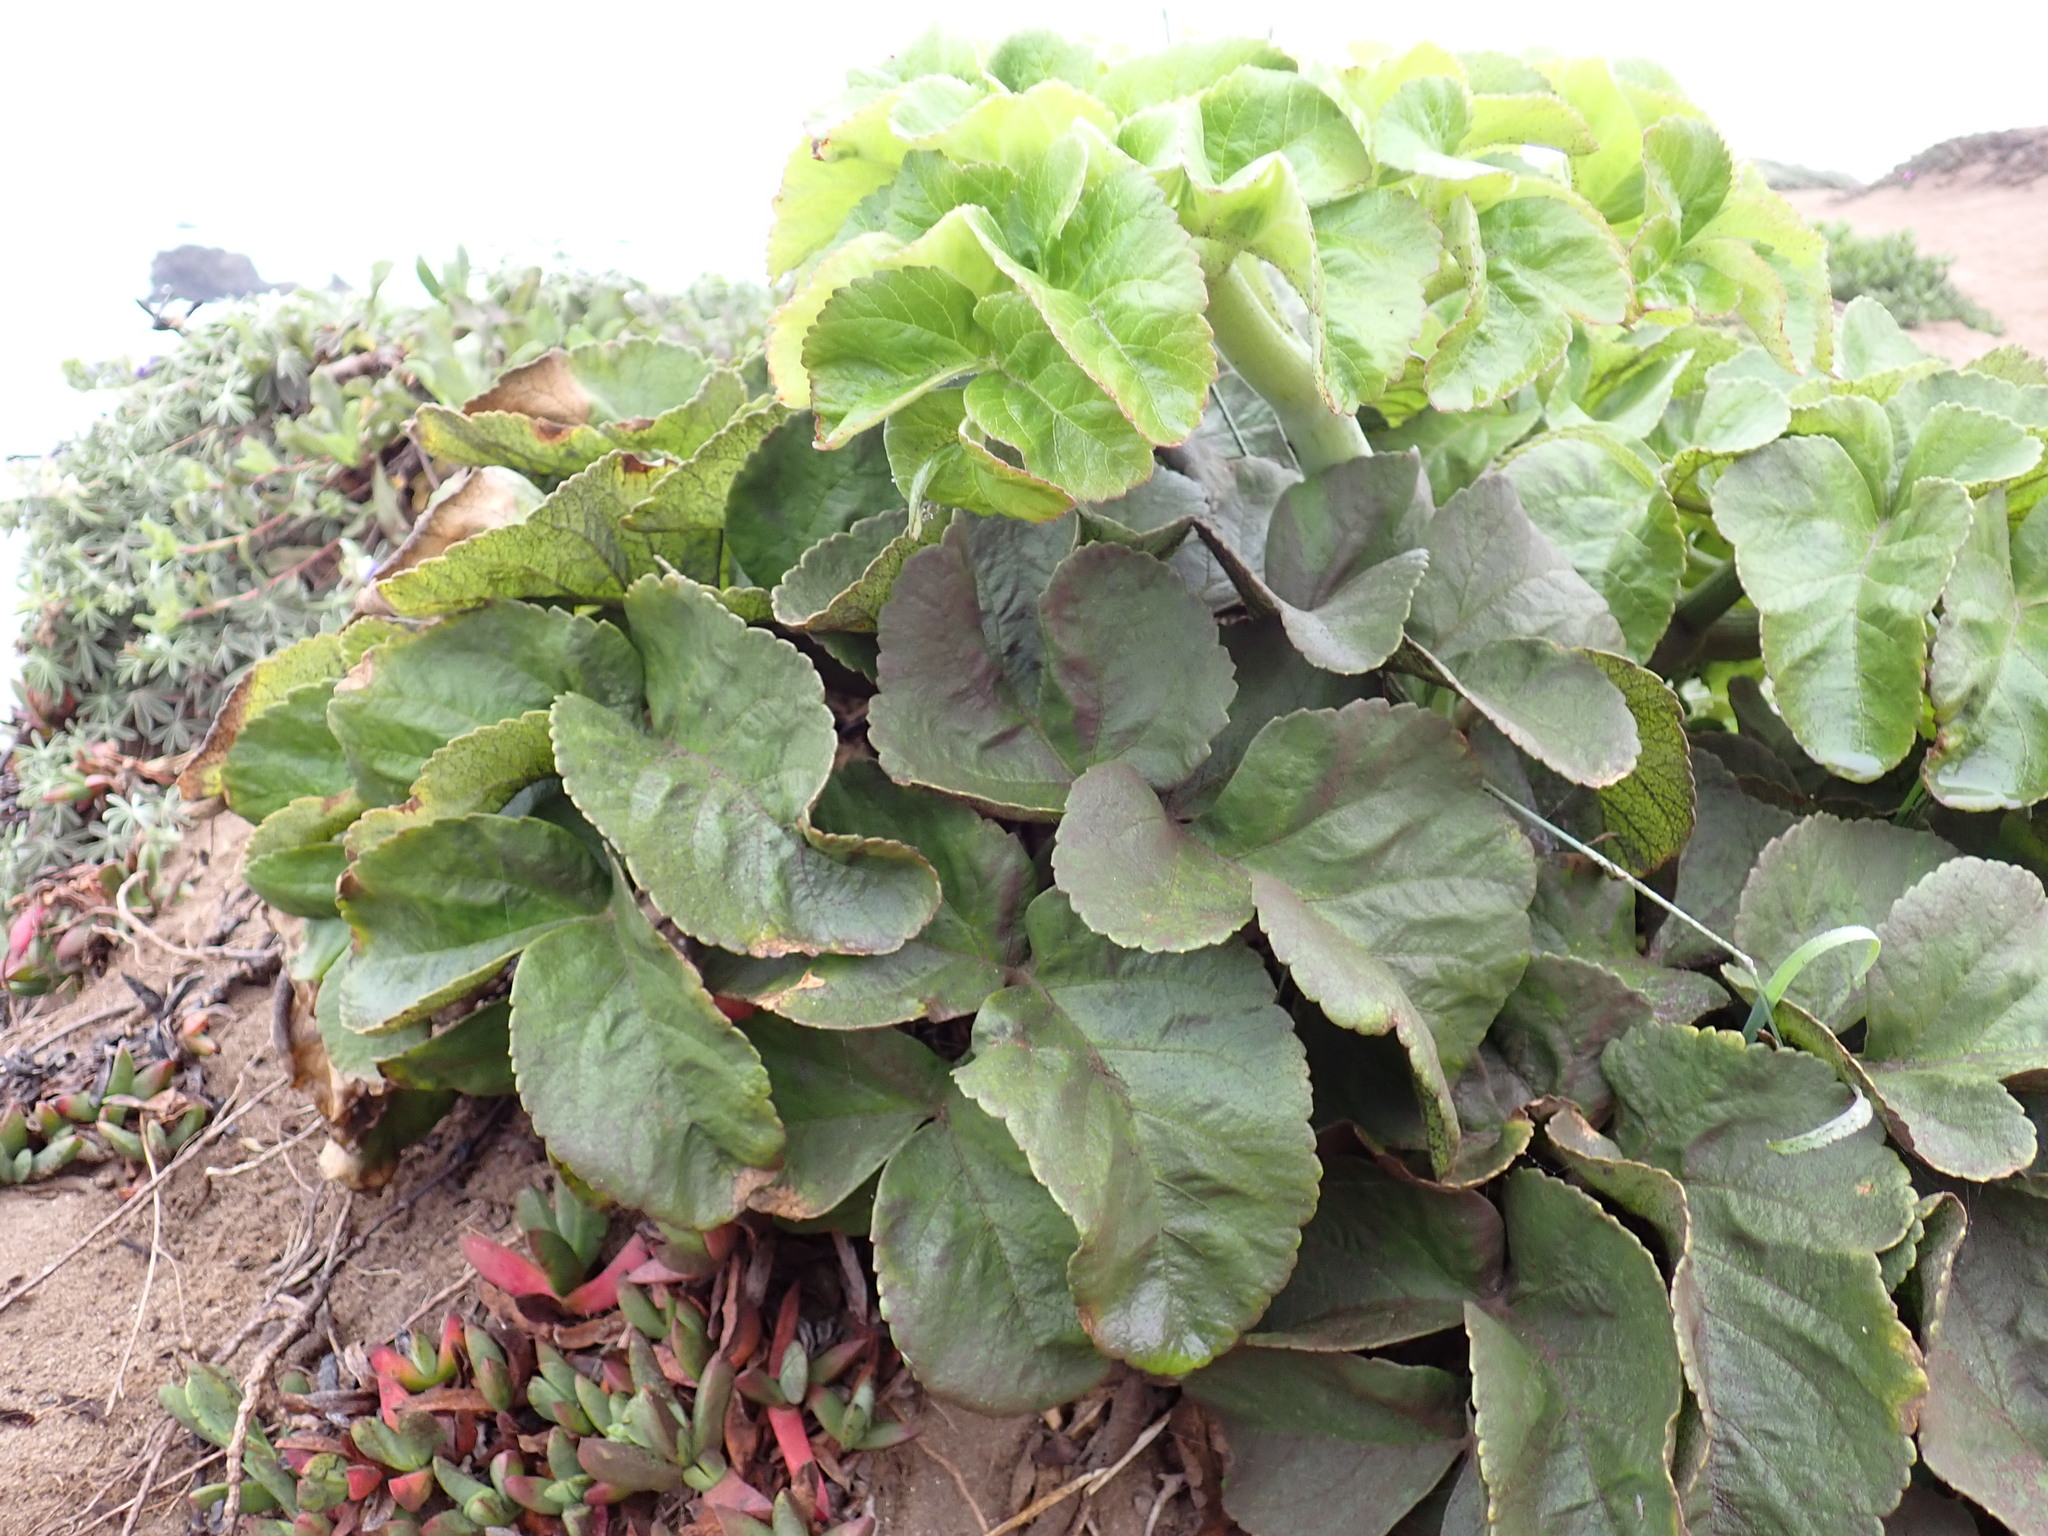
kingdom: Plantae
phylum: Tracheophyta
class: Magnoliopsida
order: Apiales
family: Apiaceae
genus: Angelica
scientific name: Angelica hendersonii
